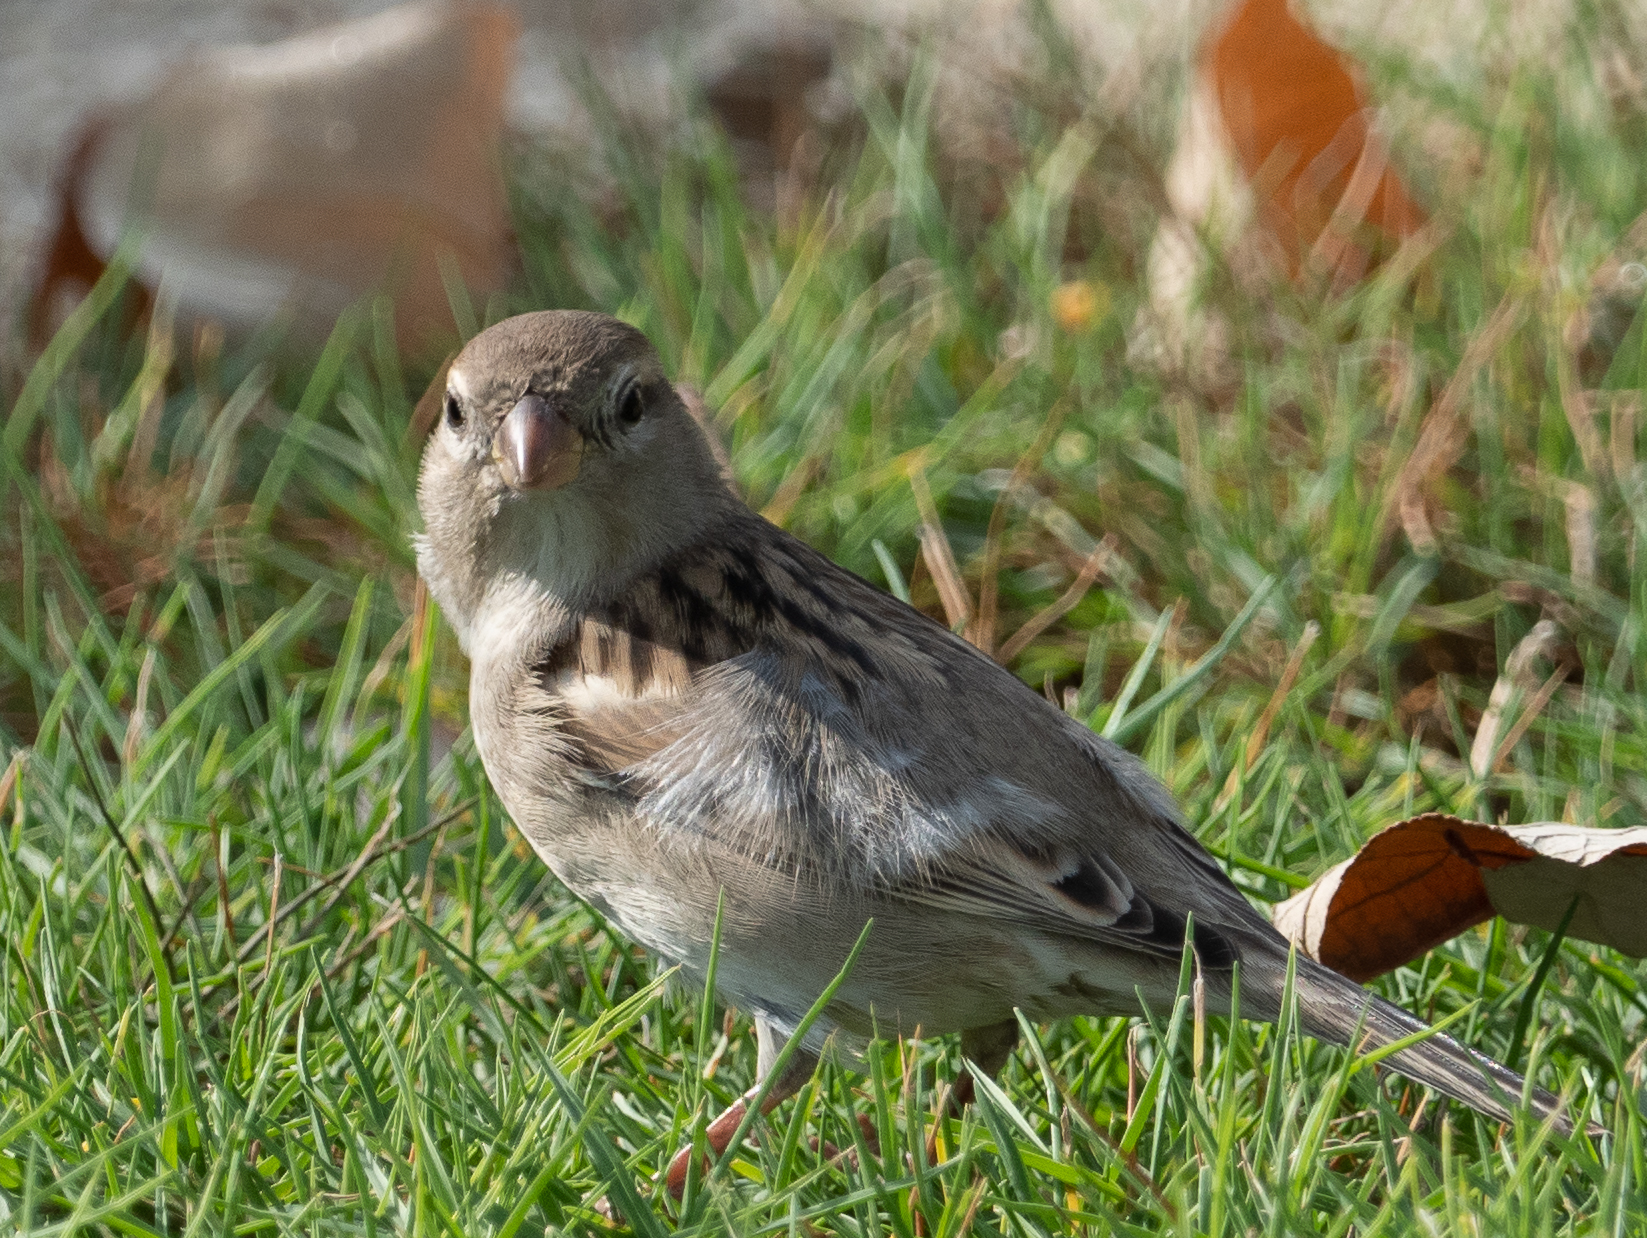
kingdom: Animalia
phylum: Chordata
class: Aves
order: Passeriformes
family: Passeridae
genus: Passer
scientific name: Passer domesticus
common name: House sparrow
